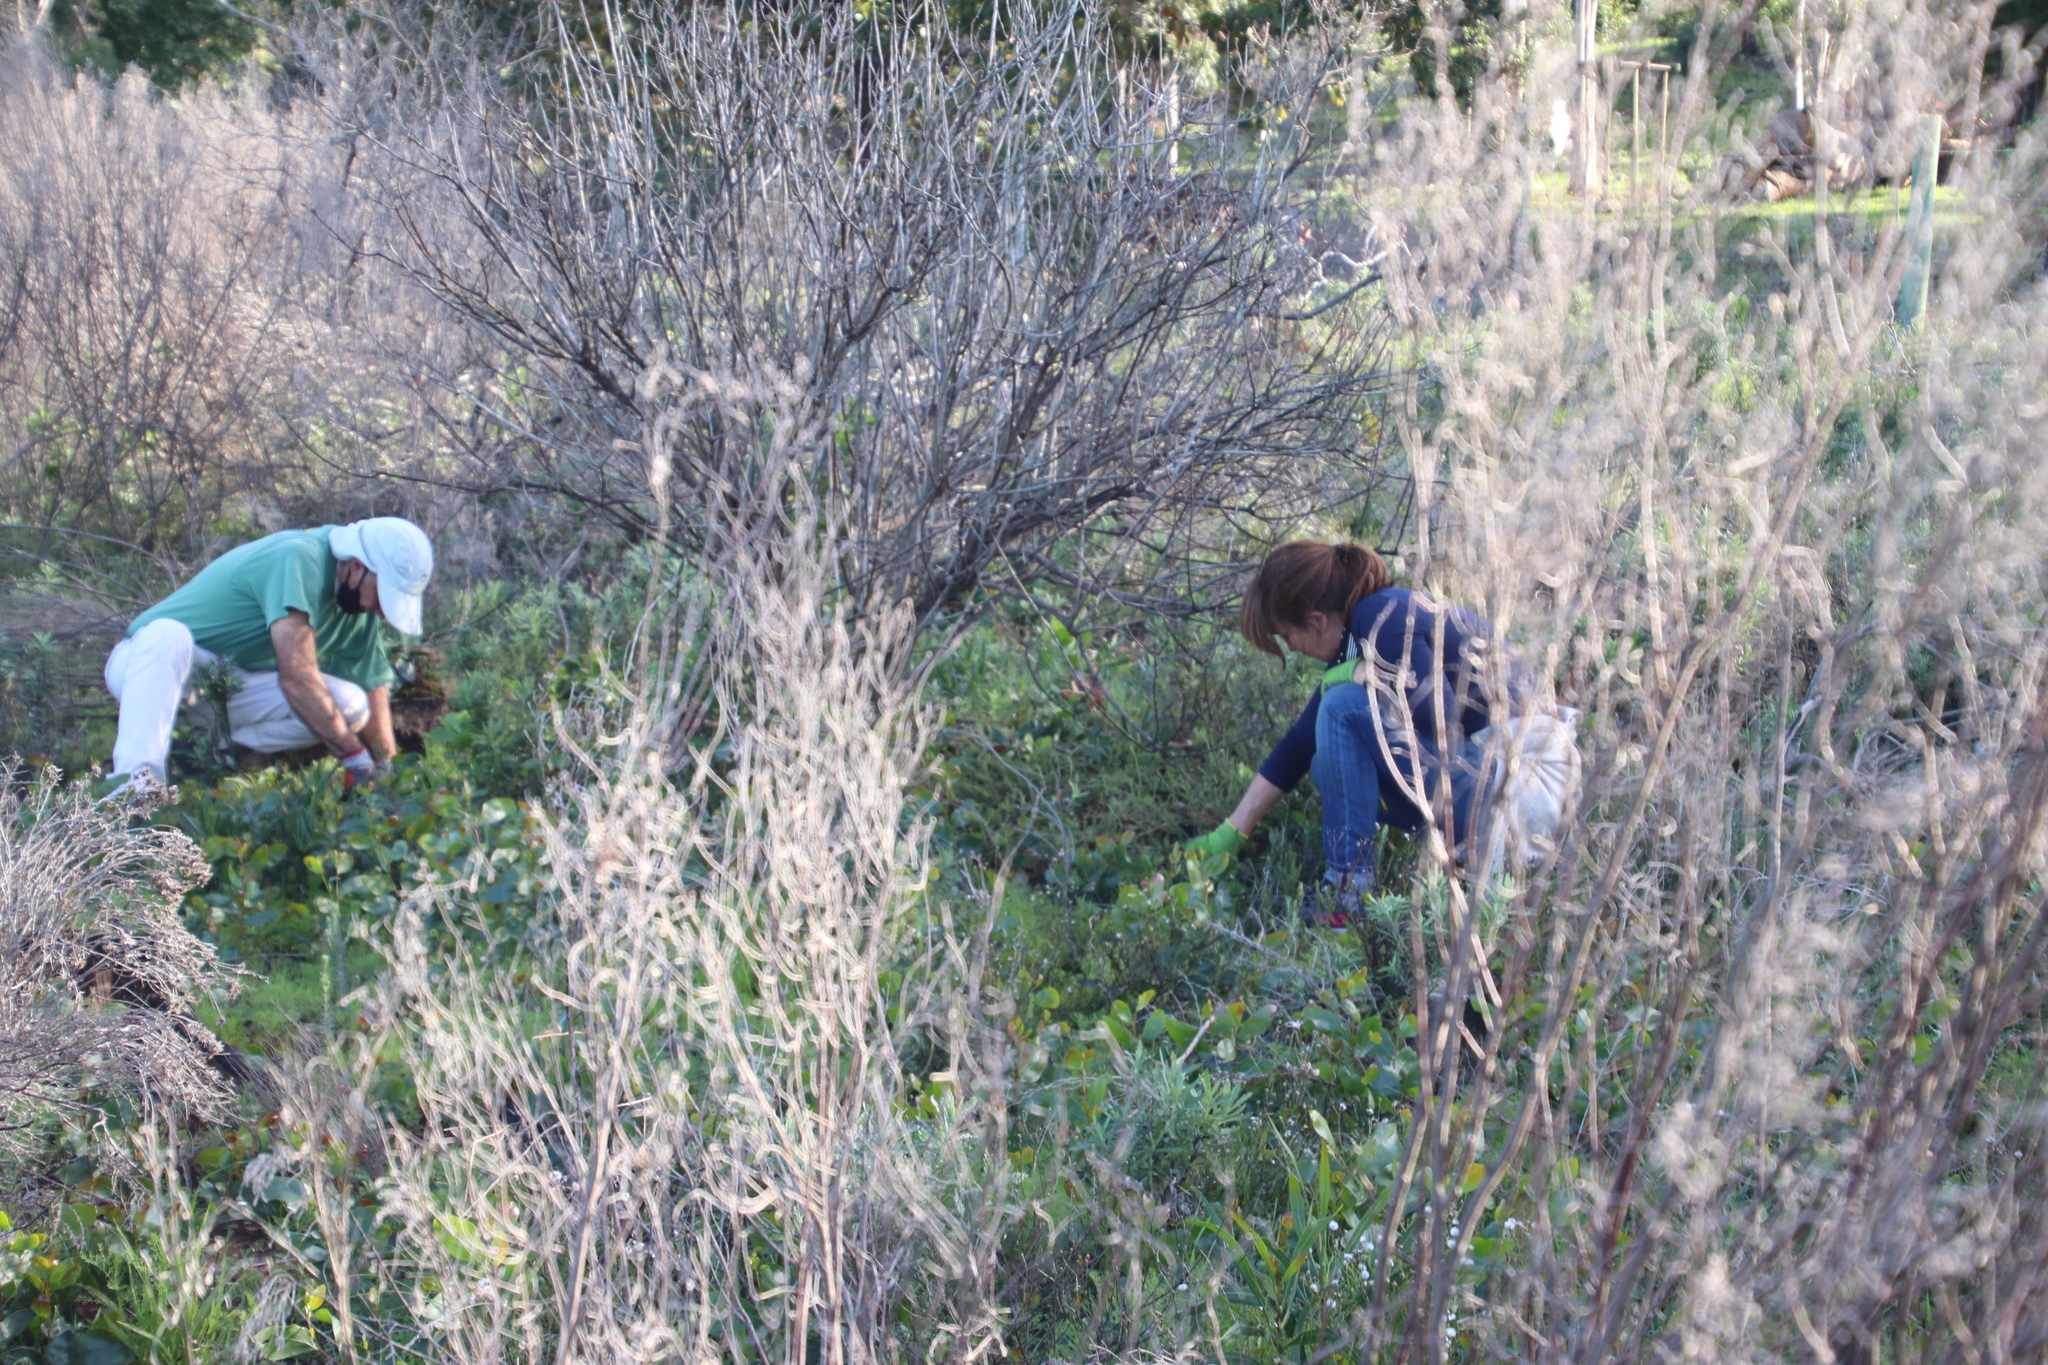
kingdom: Plantae
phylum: Tracheophyta
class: Magnoliopsida
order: Fabales
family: Fabaceae
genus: Acacia
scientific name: Acacia pycnantha
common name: Golden wattle
